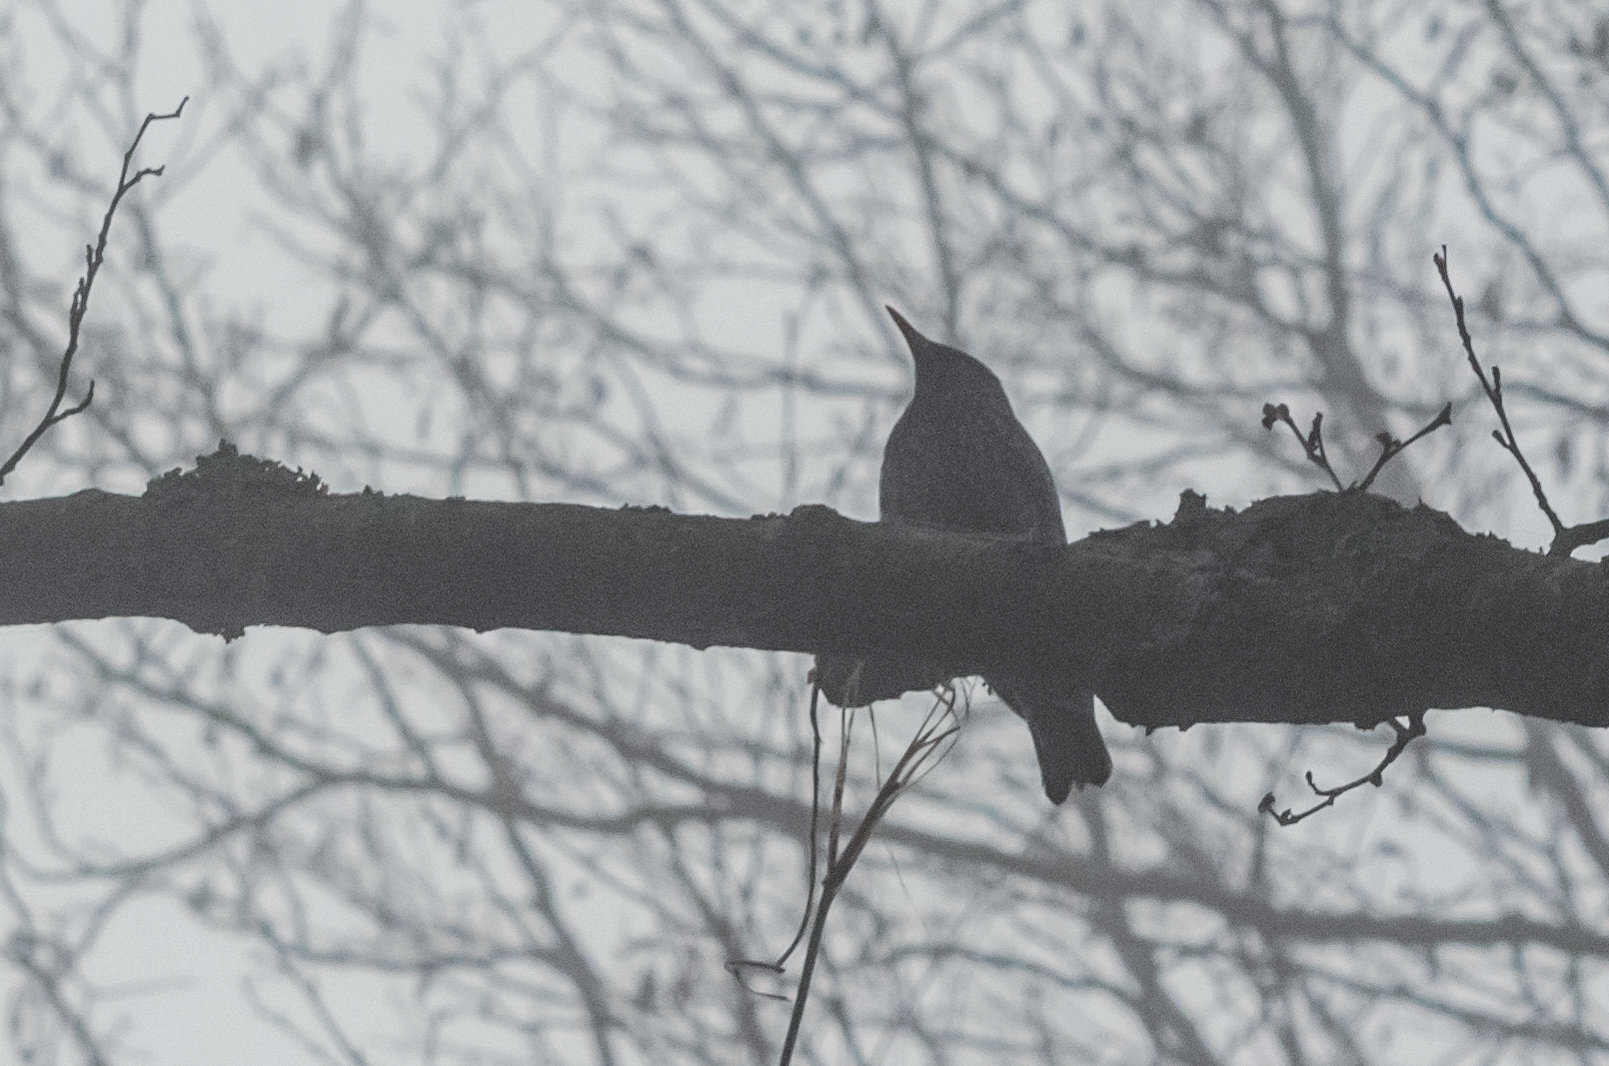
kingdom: Animalia
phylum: Chordata
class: Aves
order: Passeriformes
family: Sturnidae
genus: Sturnus
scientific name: Sturnus vulgaris
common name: Common starling
